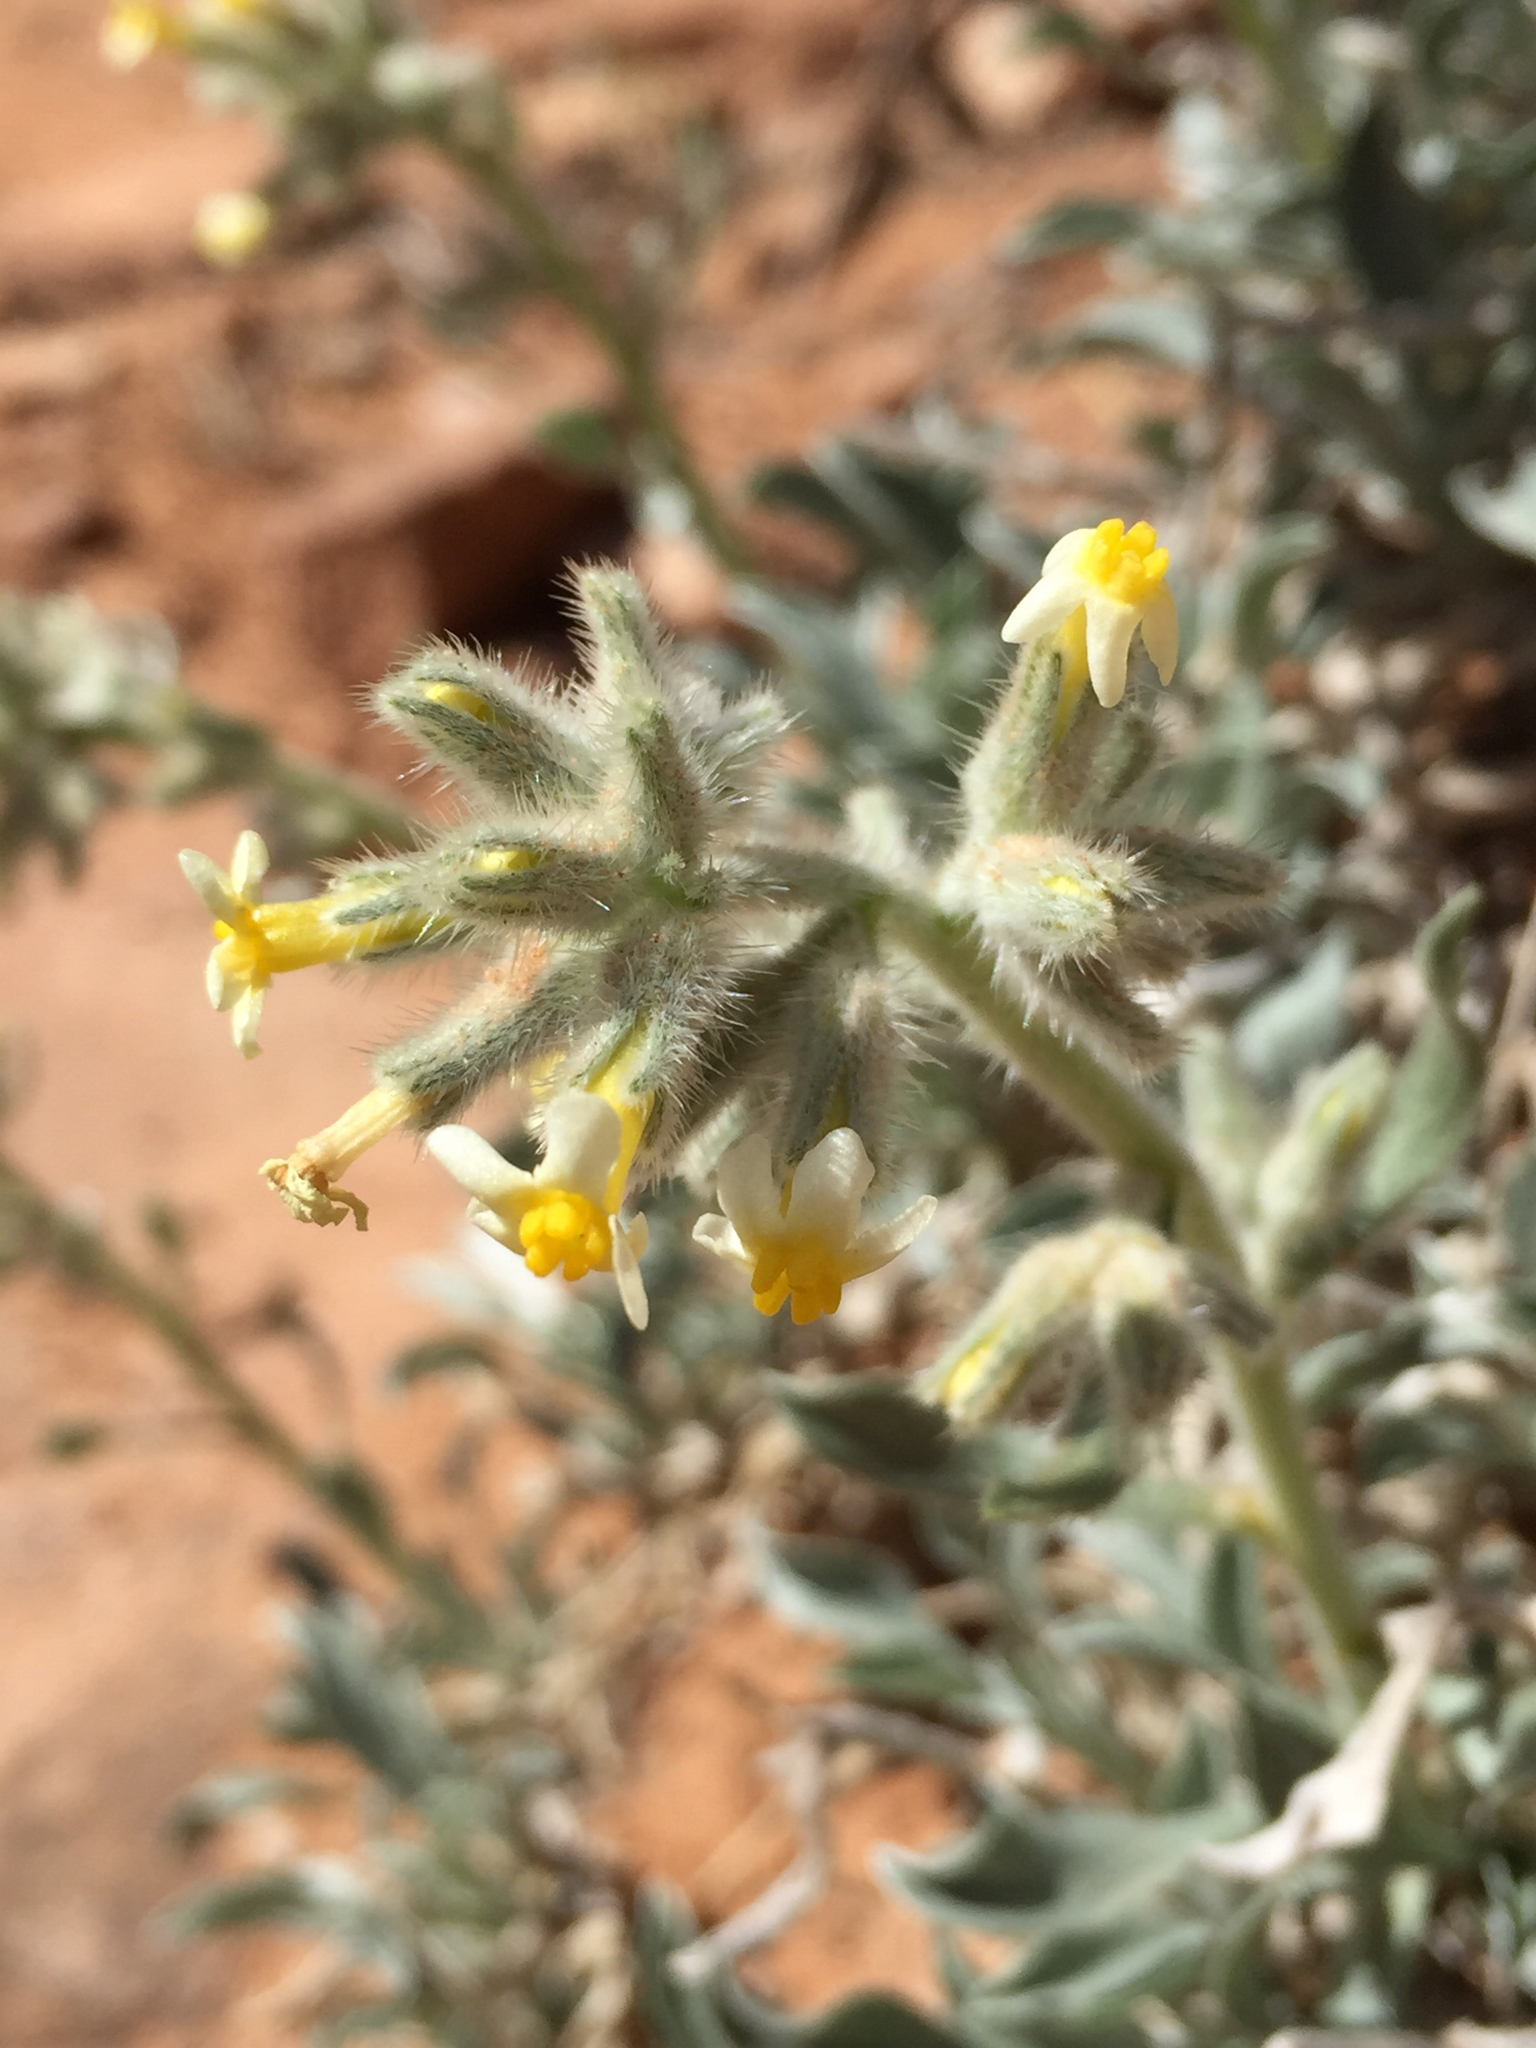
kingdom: Plantae
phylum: Tracheophyta
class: Magnoliopsida
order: Boraginales
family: Boraginaceae
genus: Oreocarya
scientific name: Oreocarya flavoculata
